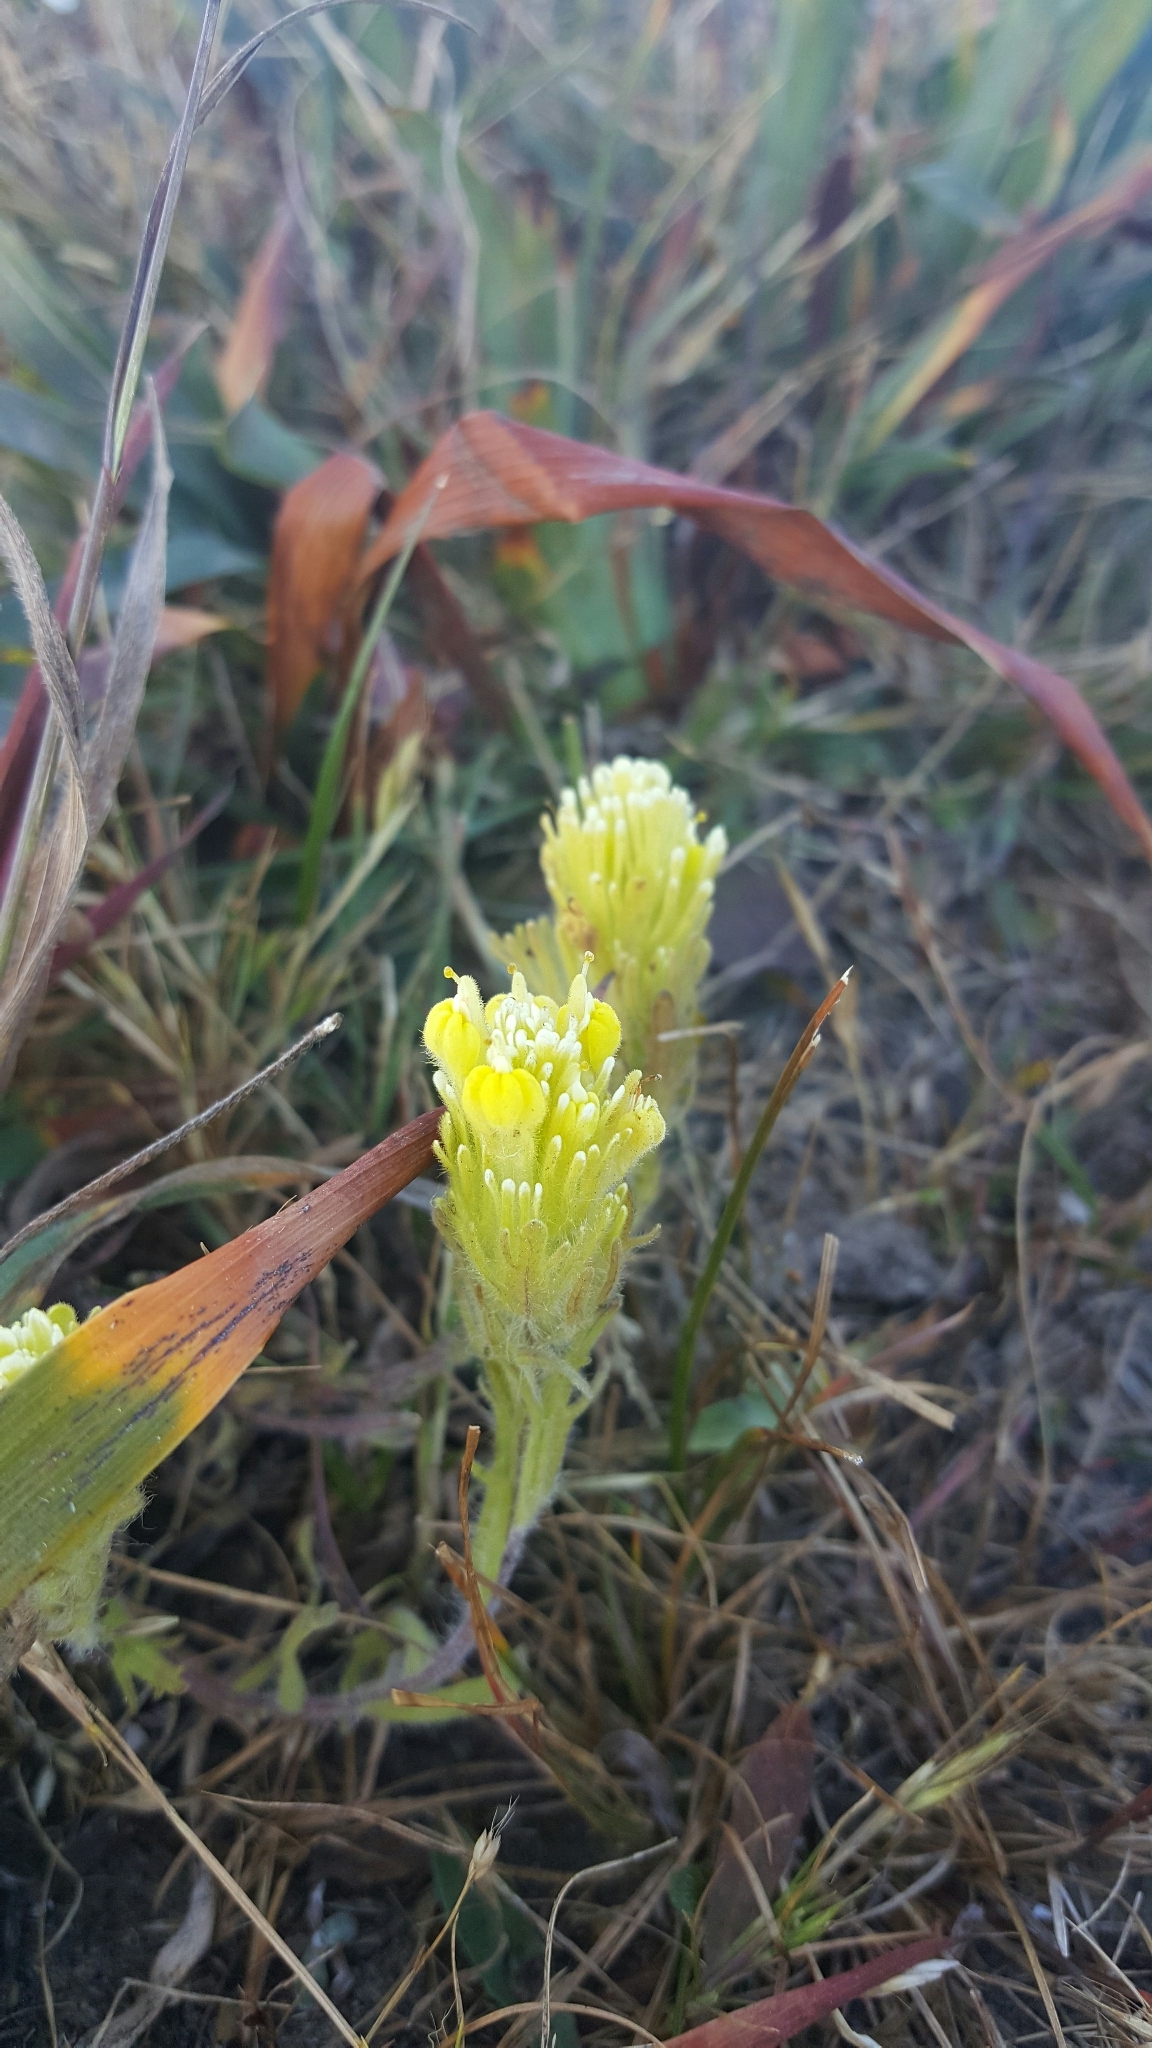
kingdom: Plantae
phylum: Tracheophyta
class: Magnoliopsida
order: Lamiales
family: Orobanchaceae
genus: Castilleja
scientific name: Castilleja ambigua
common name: Johnny-nip
